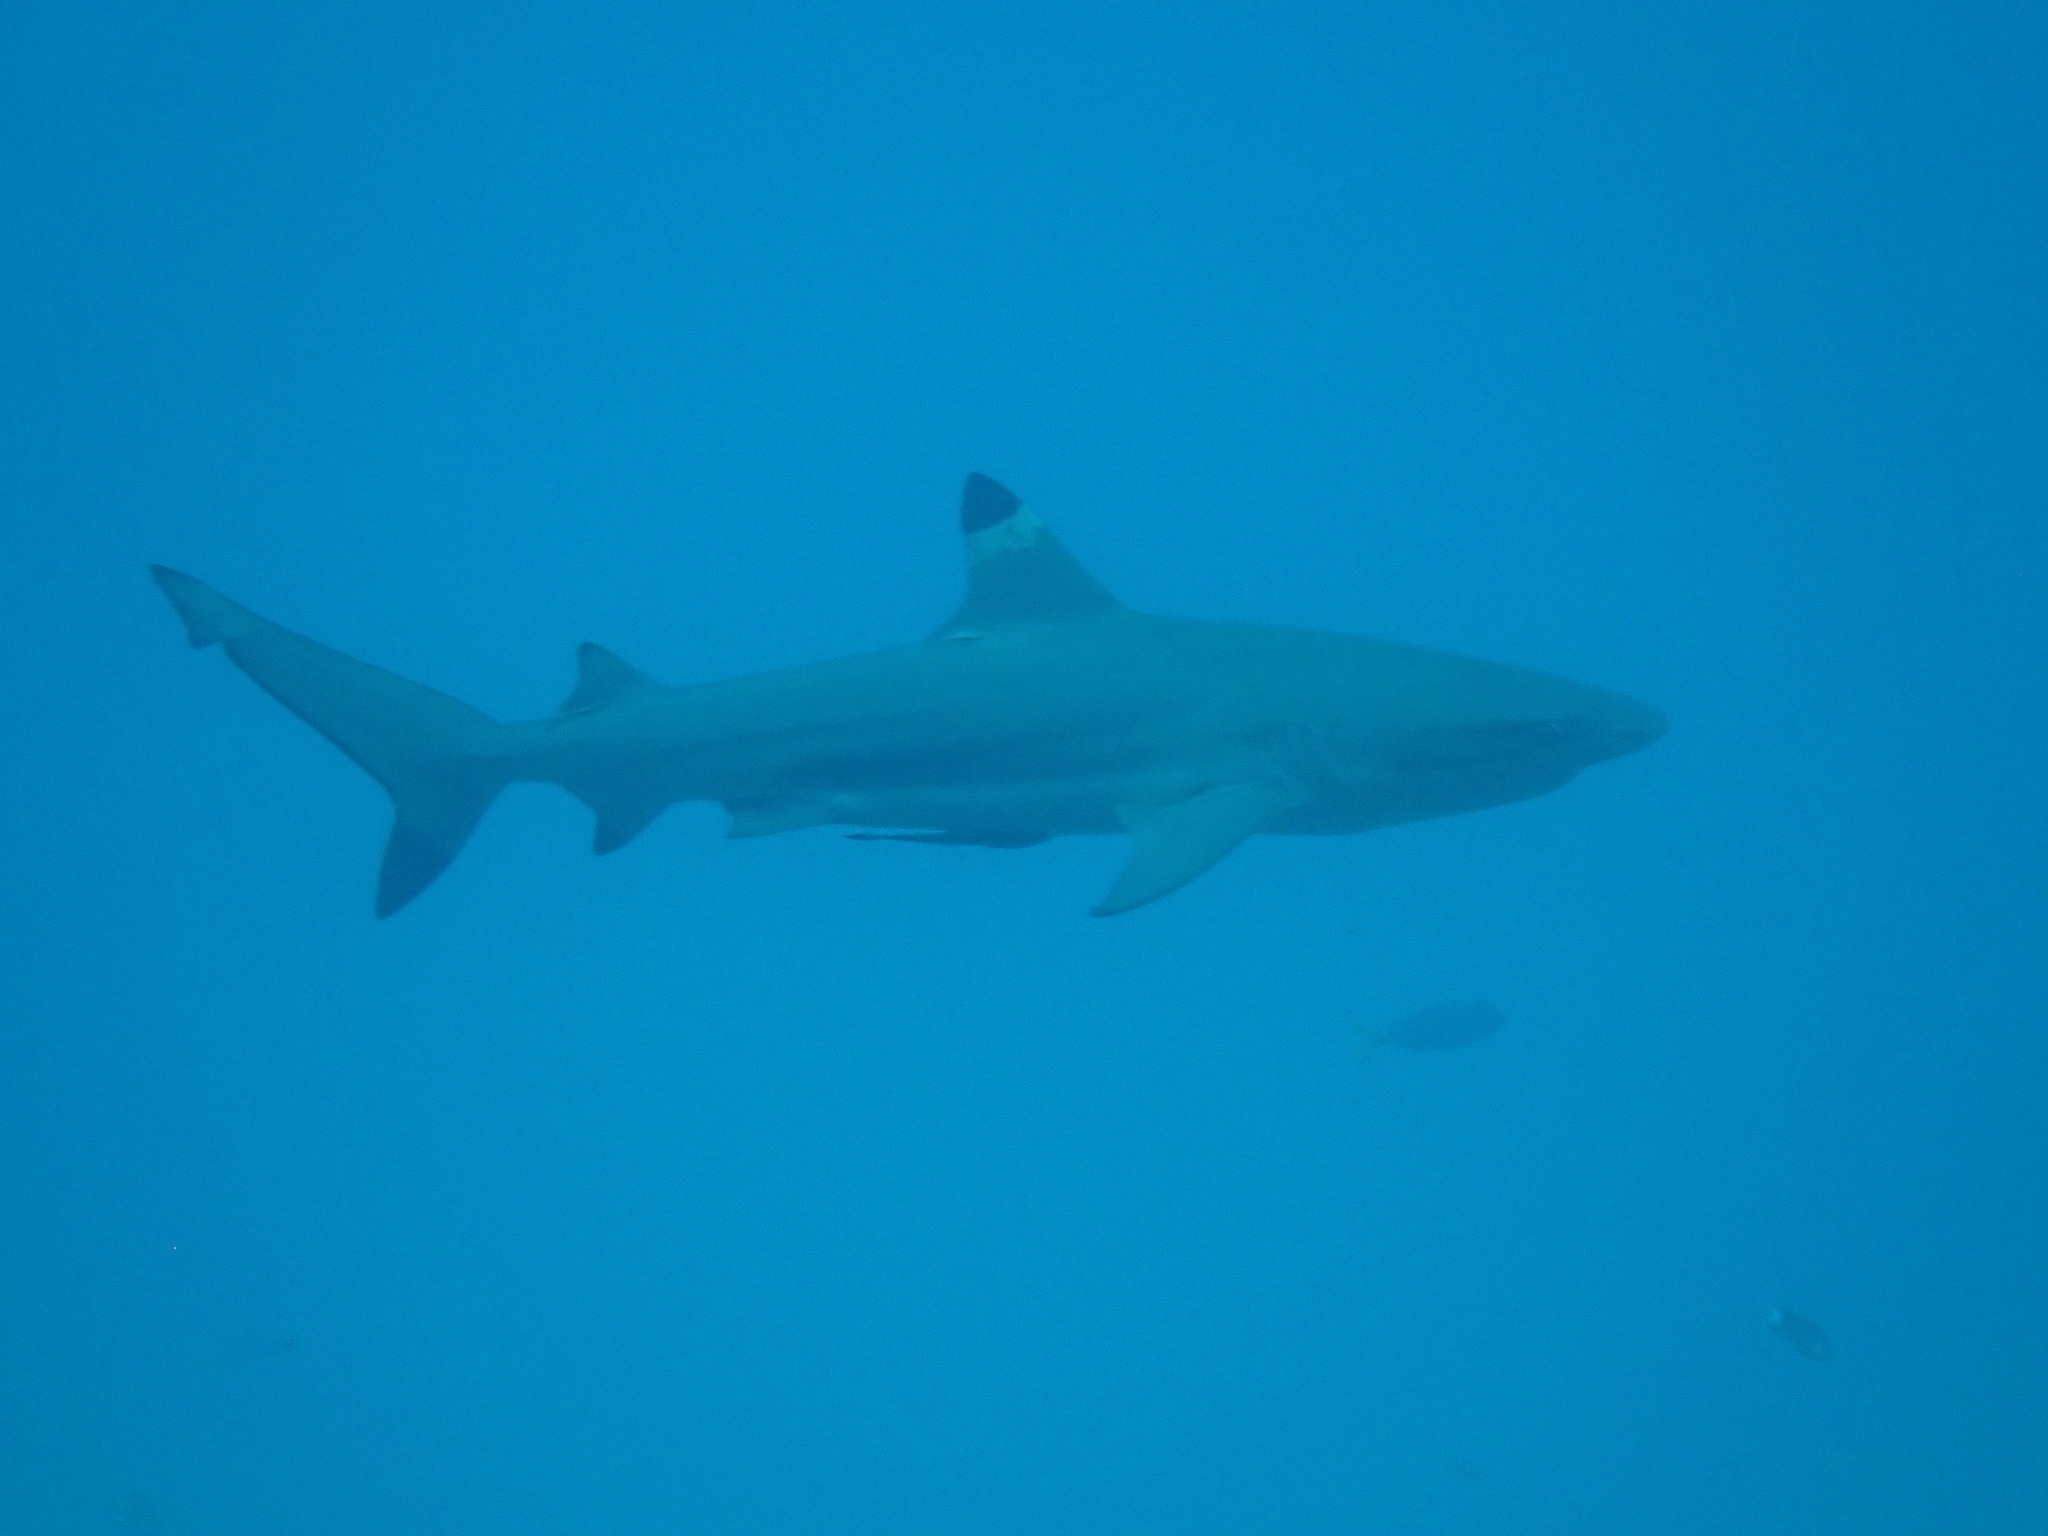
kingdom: Animalia
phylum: Chordata
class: Elasmobranchii
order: Carcharhiniformes
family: Carcharhinidae
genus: Carcharhinus
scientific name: Carcharhinus melanopterus
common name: Blacktip reef shark
